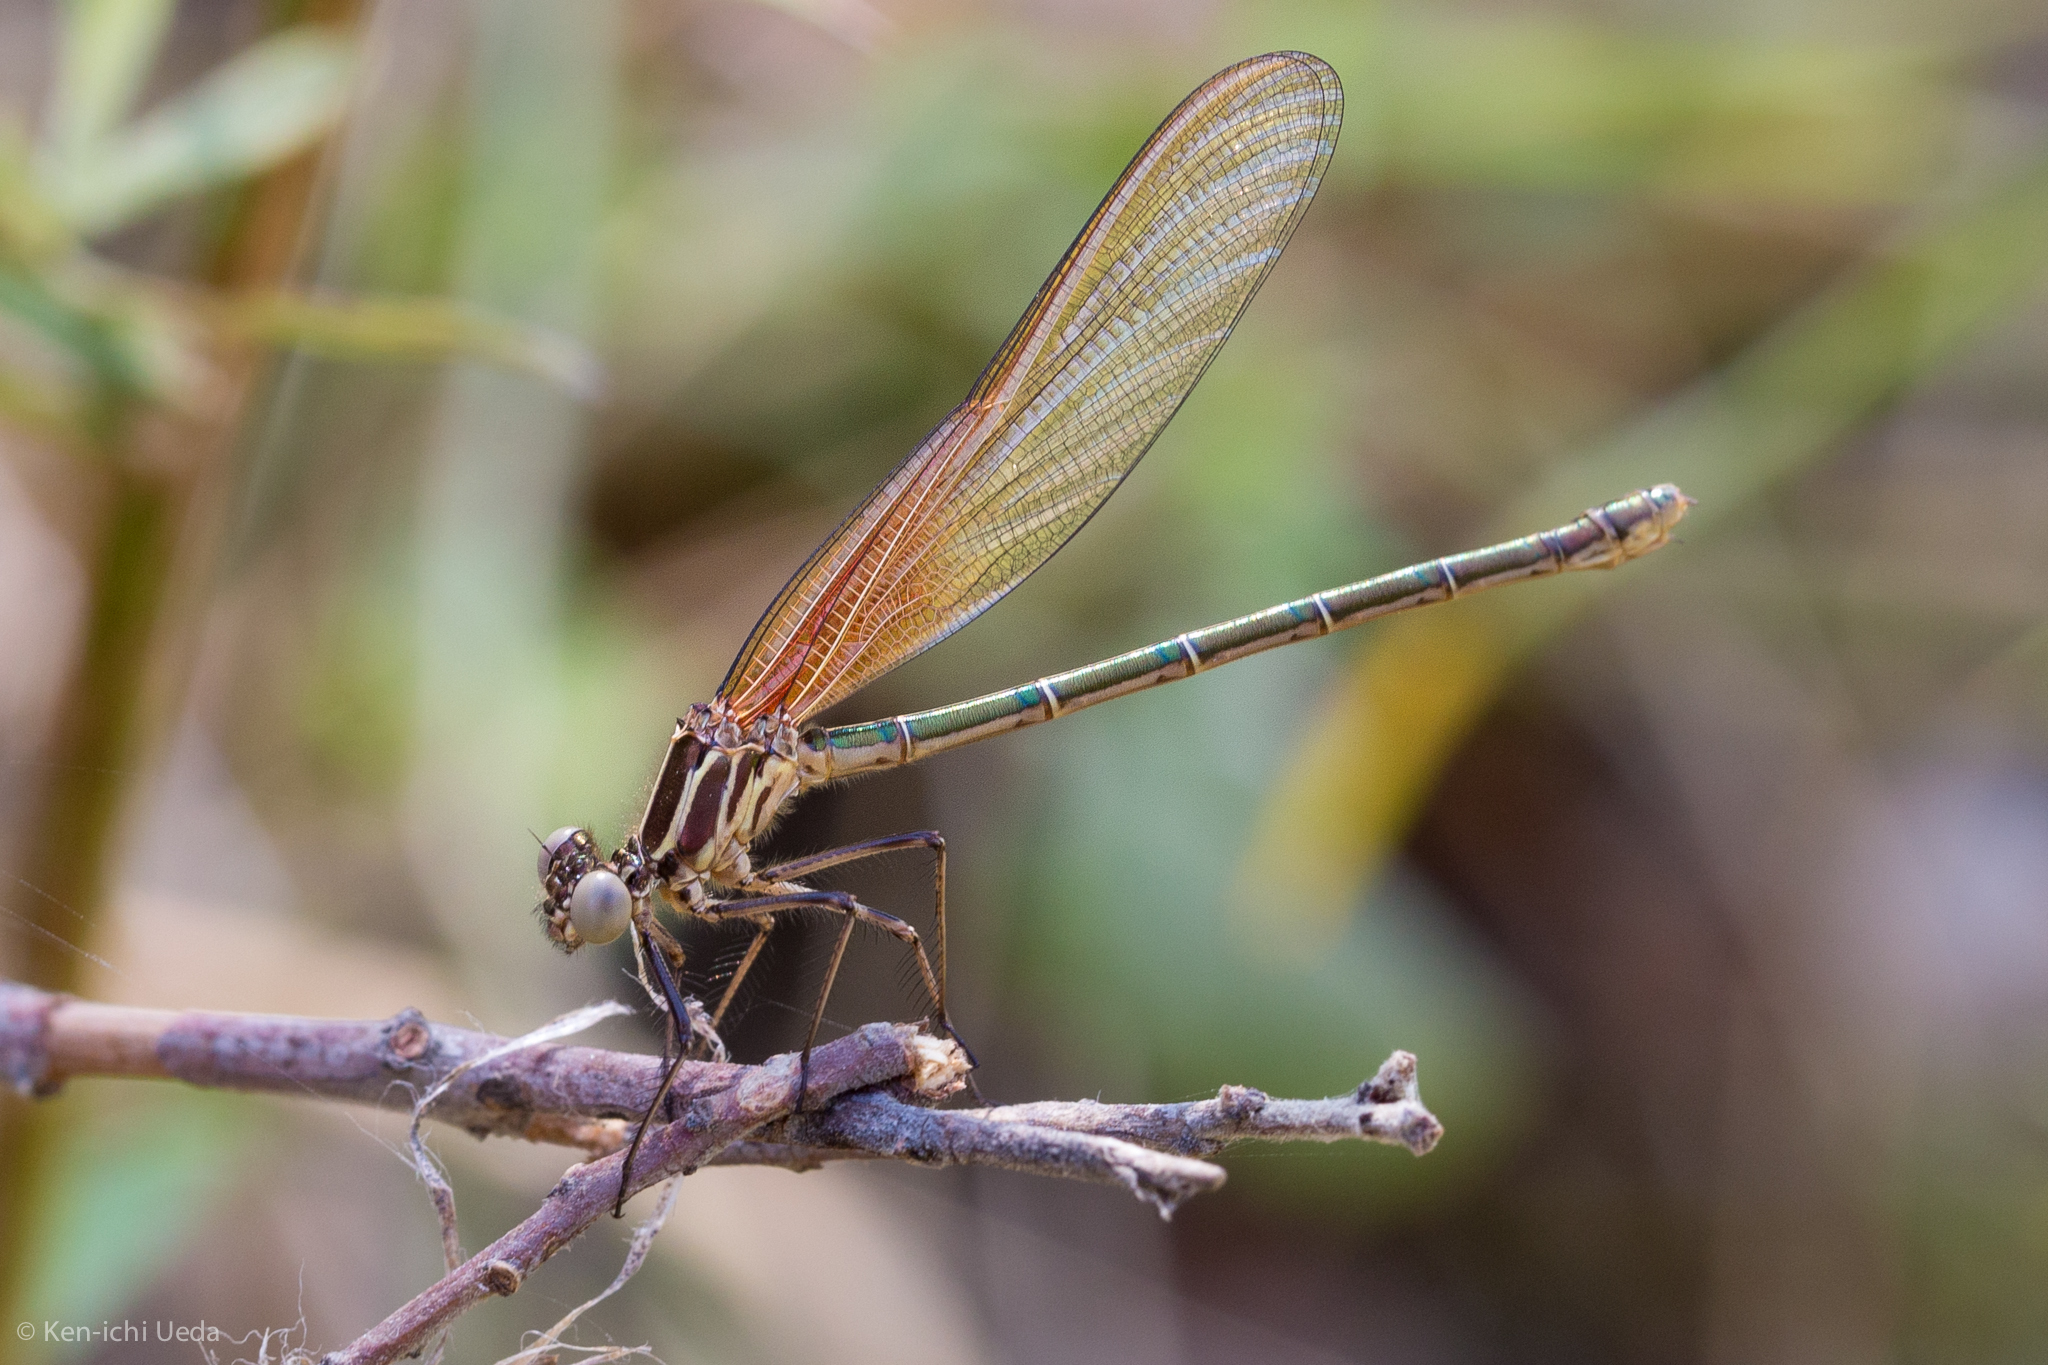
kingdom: Animalia
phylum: Arthropoda
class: Insecta
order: Odonata
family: Calopterygidae
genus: Hetaerina
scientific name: Hetaerina americana
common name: American rubyspot
